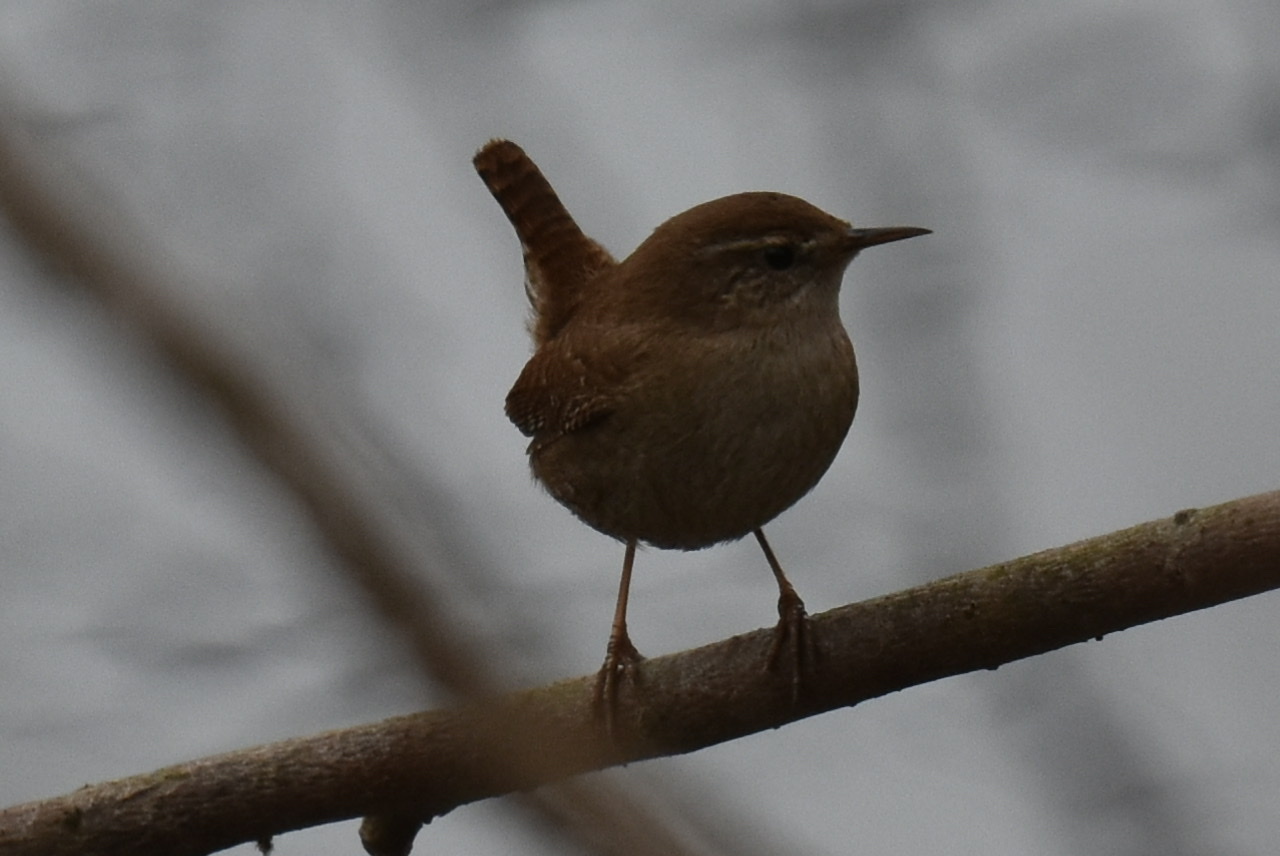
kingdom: Animalia
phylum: Chordata
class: Aves
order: Passeriformes
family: Troglodytidae
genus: Troglodytes
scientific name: Troglodytes troglodytes
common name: Eurasian wren
